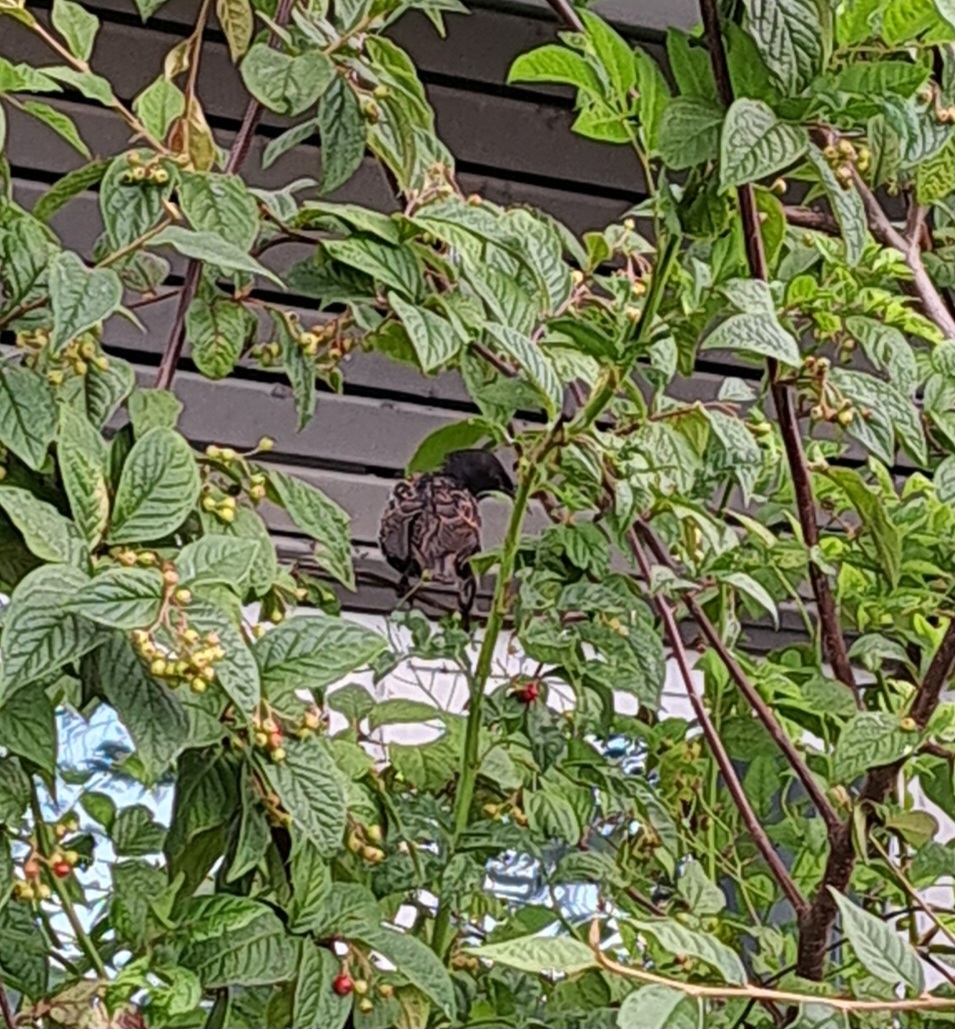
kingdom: Animalia
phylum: Chordata
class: Aves
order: Passeriformes
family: Sturnidae
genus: Sturnus
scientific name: Sturnus vulgaris
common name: Common starling
